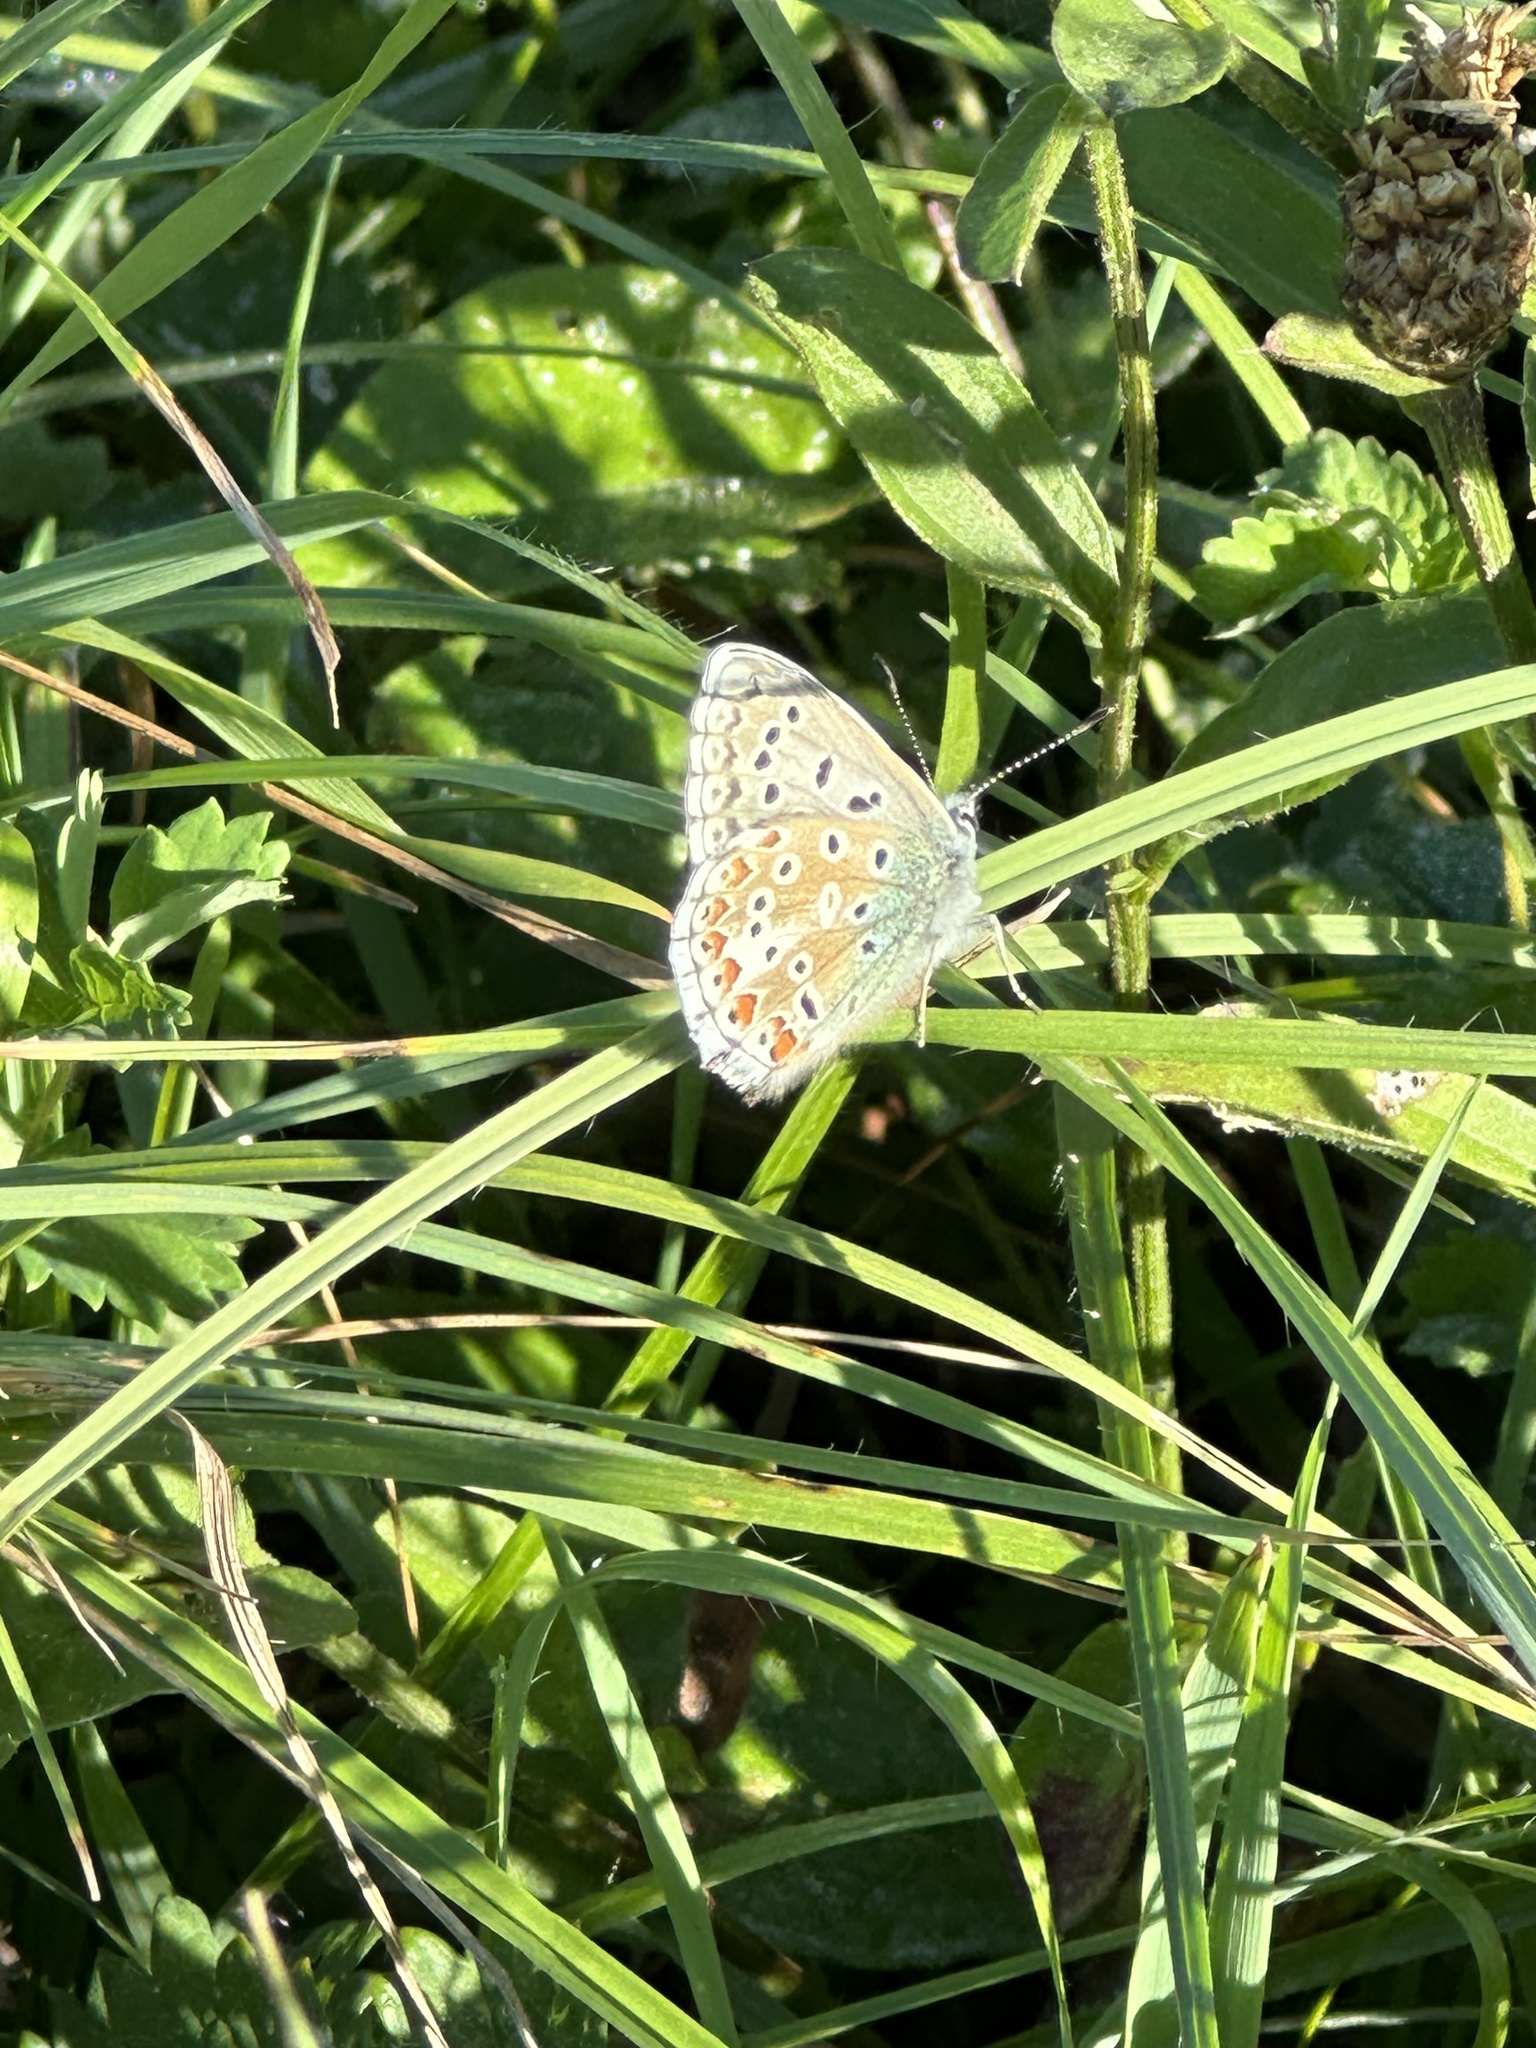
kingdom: Animalia
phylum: Arthropoda
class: Insecta
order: Lepidoptera
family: Lycaenidae
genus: Lysandra
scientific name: Lysandra bellargus
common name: Adonis blue
